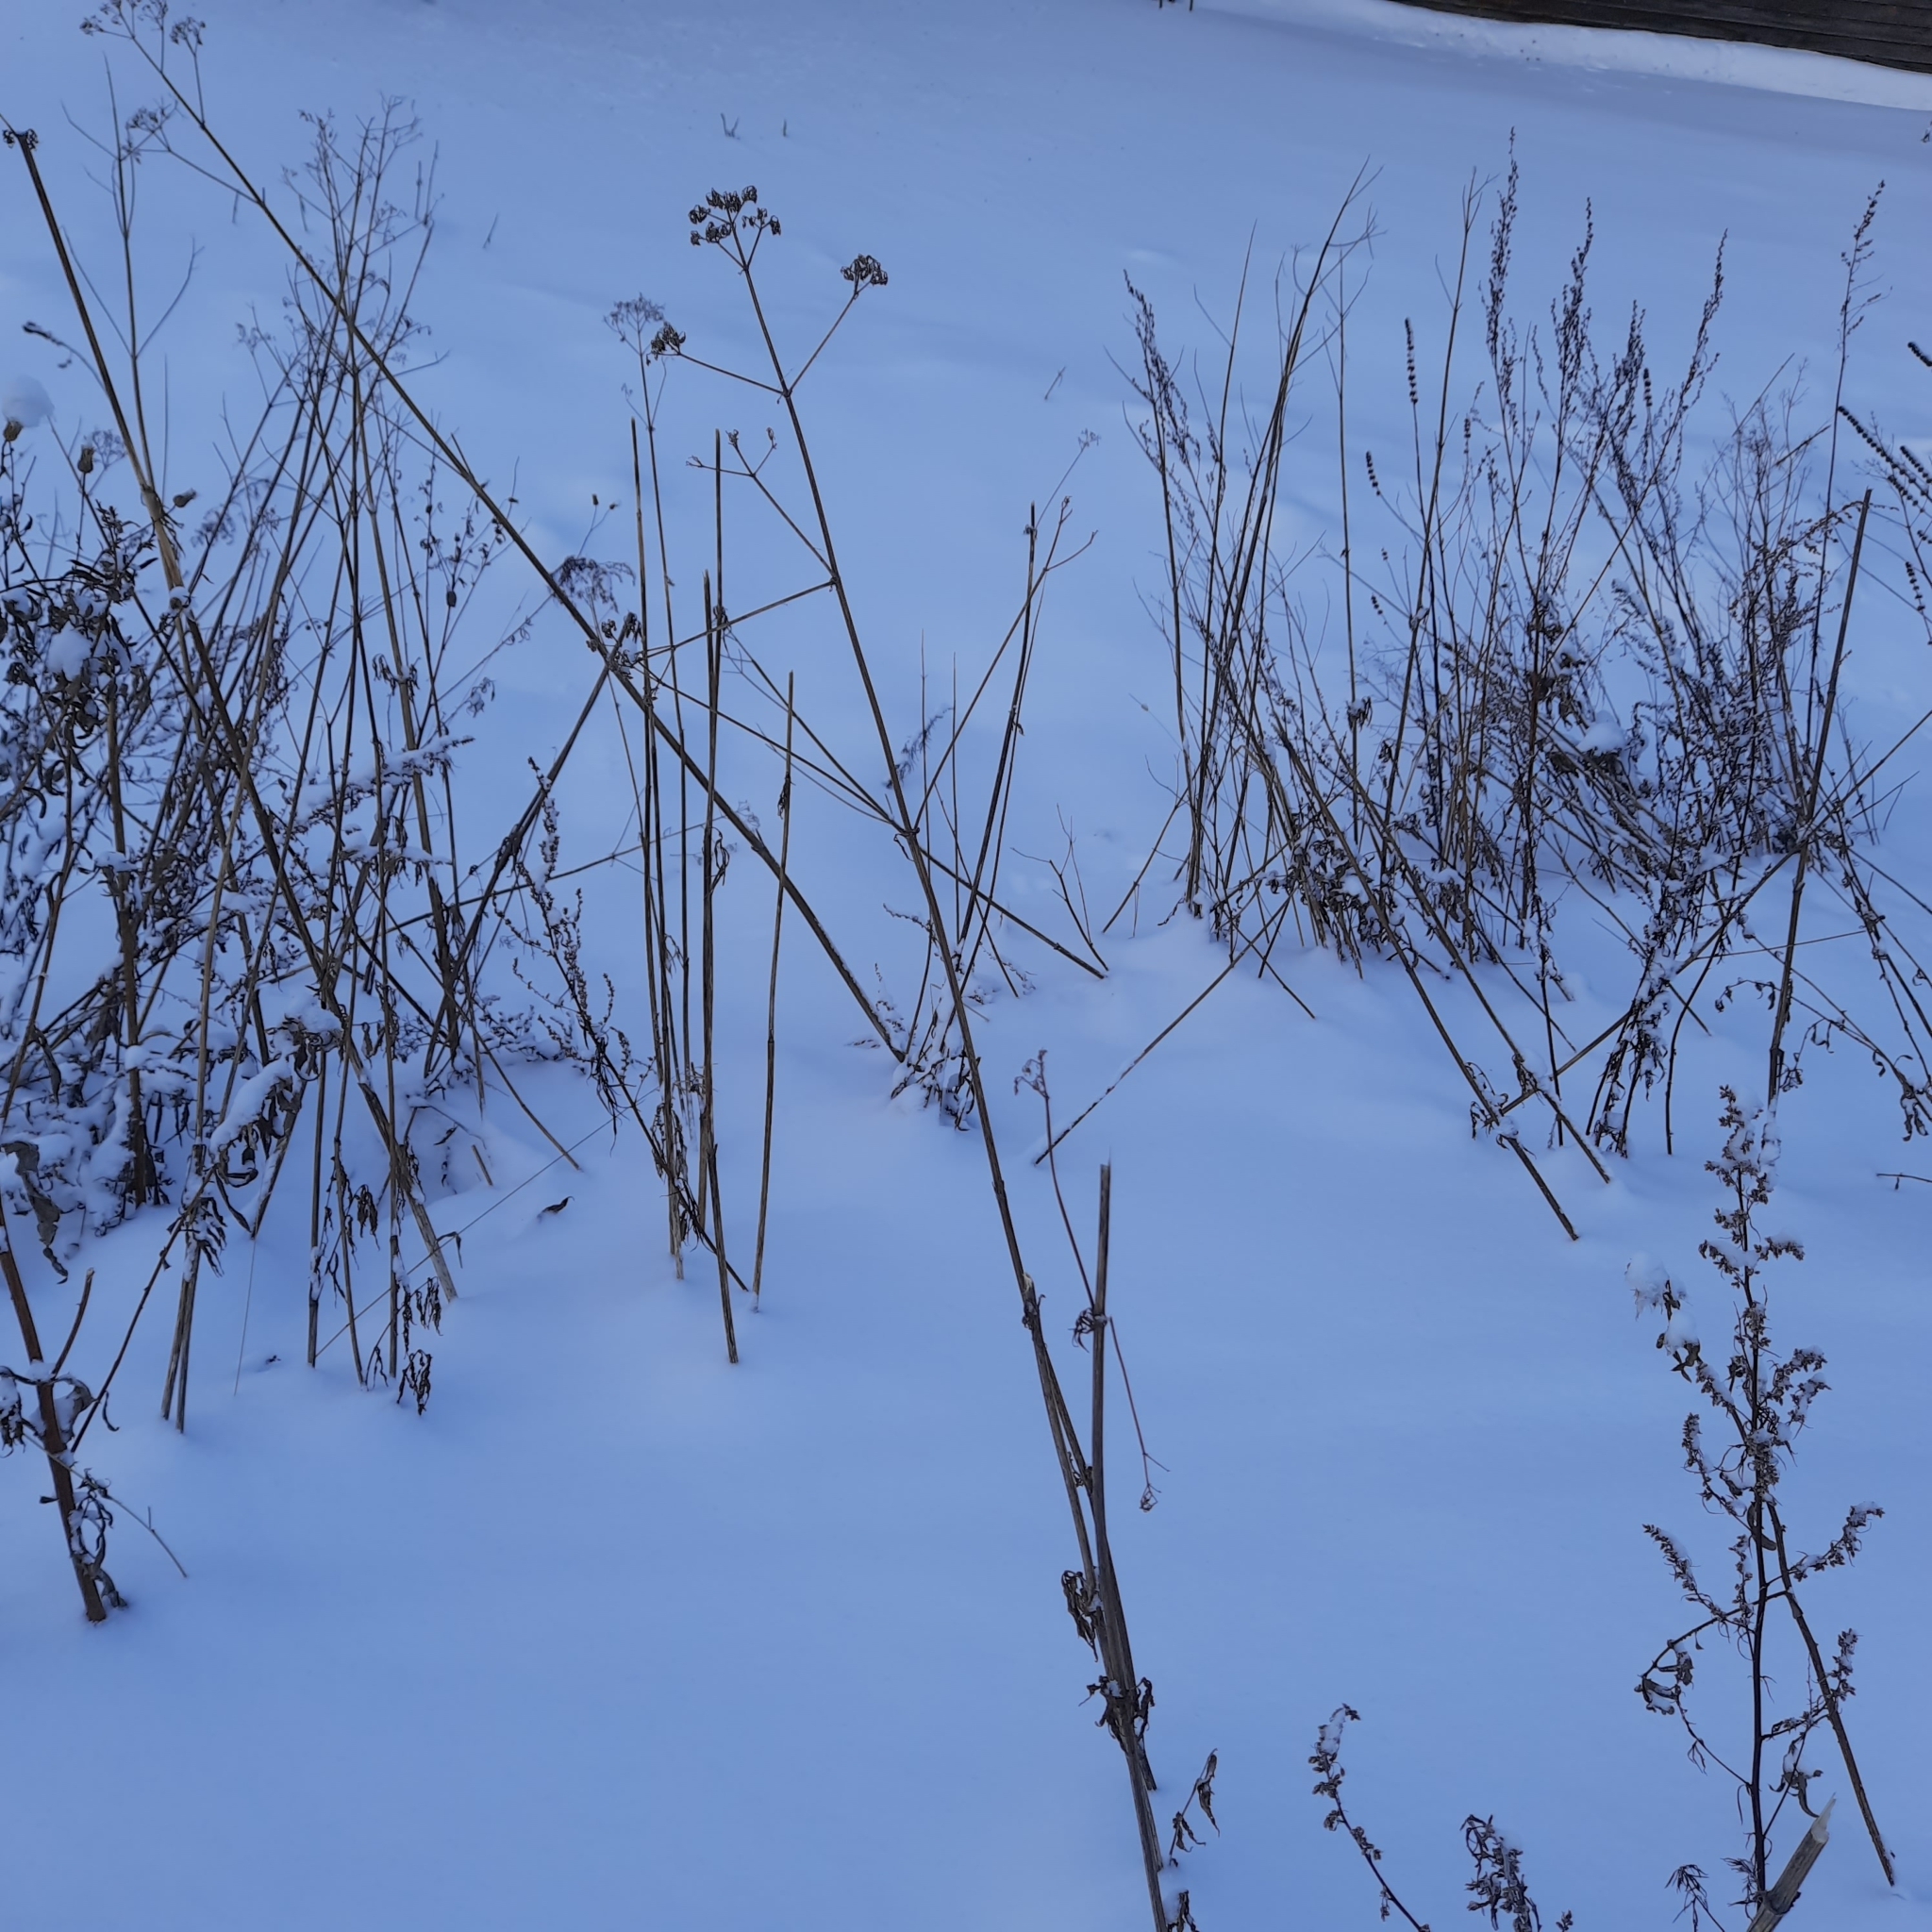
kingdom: Plantae
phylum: Tracheophyta
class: Magnoliopsida
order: Dipsacales
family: Caprifoliaceae
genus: Valeriana
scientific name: Valeriana wolgensis
